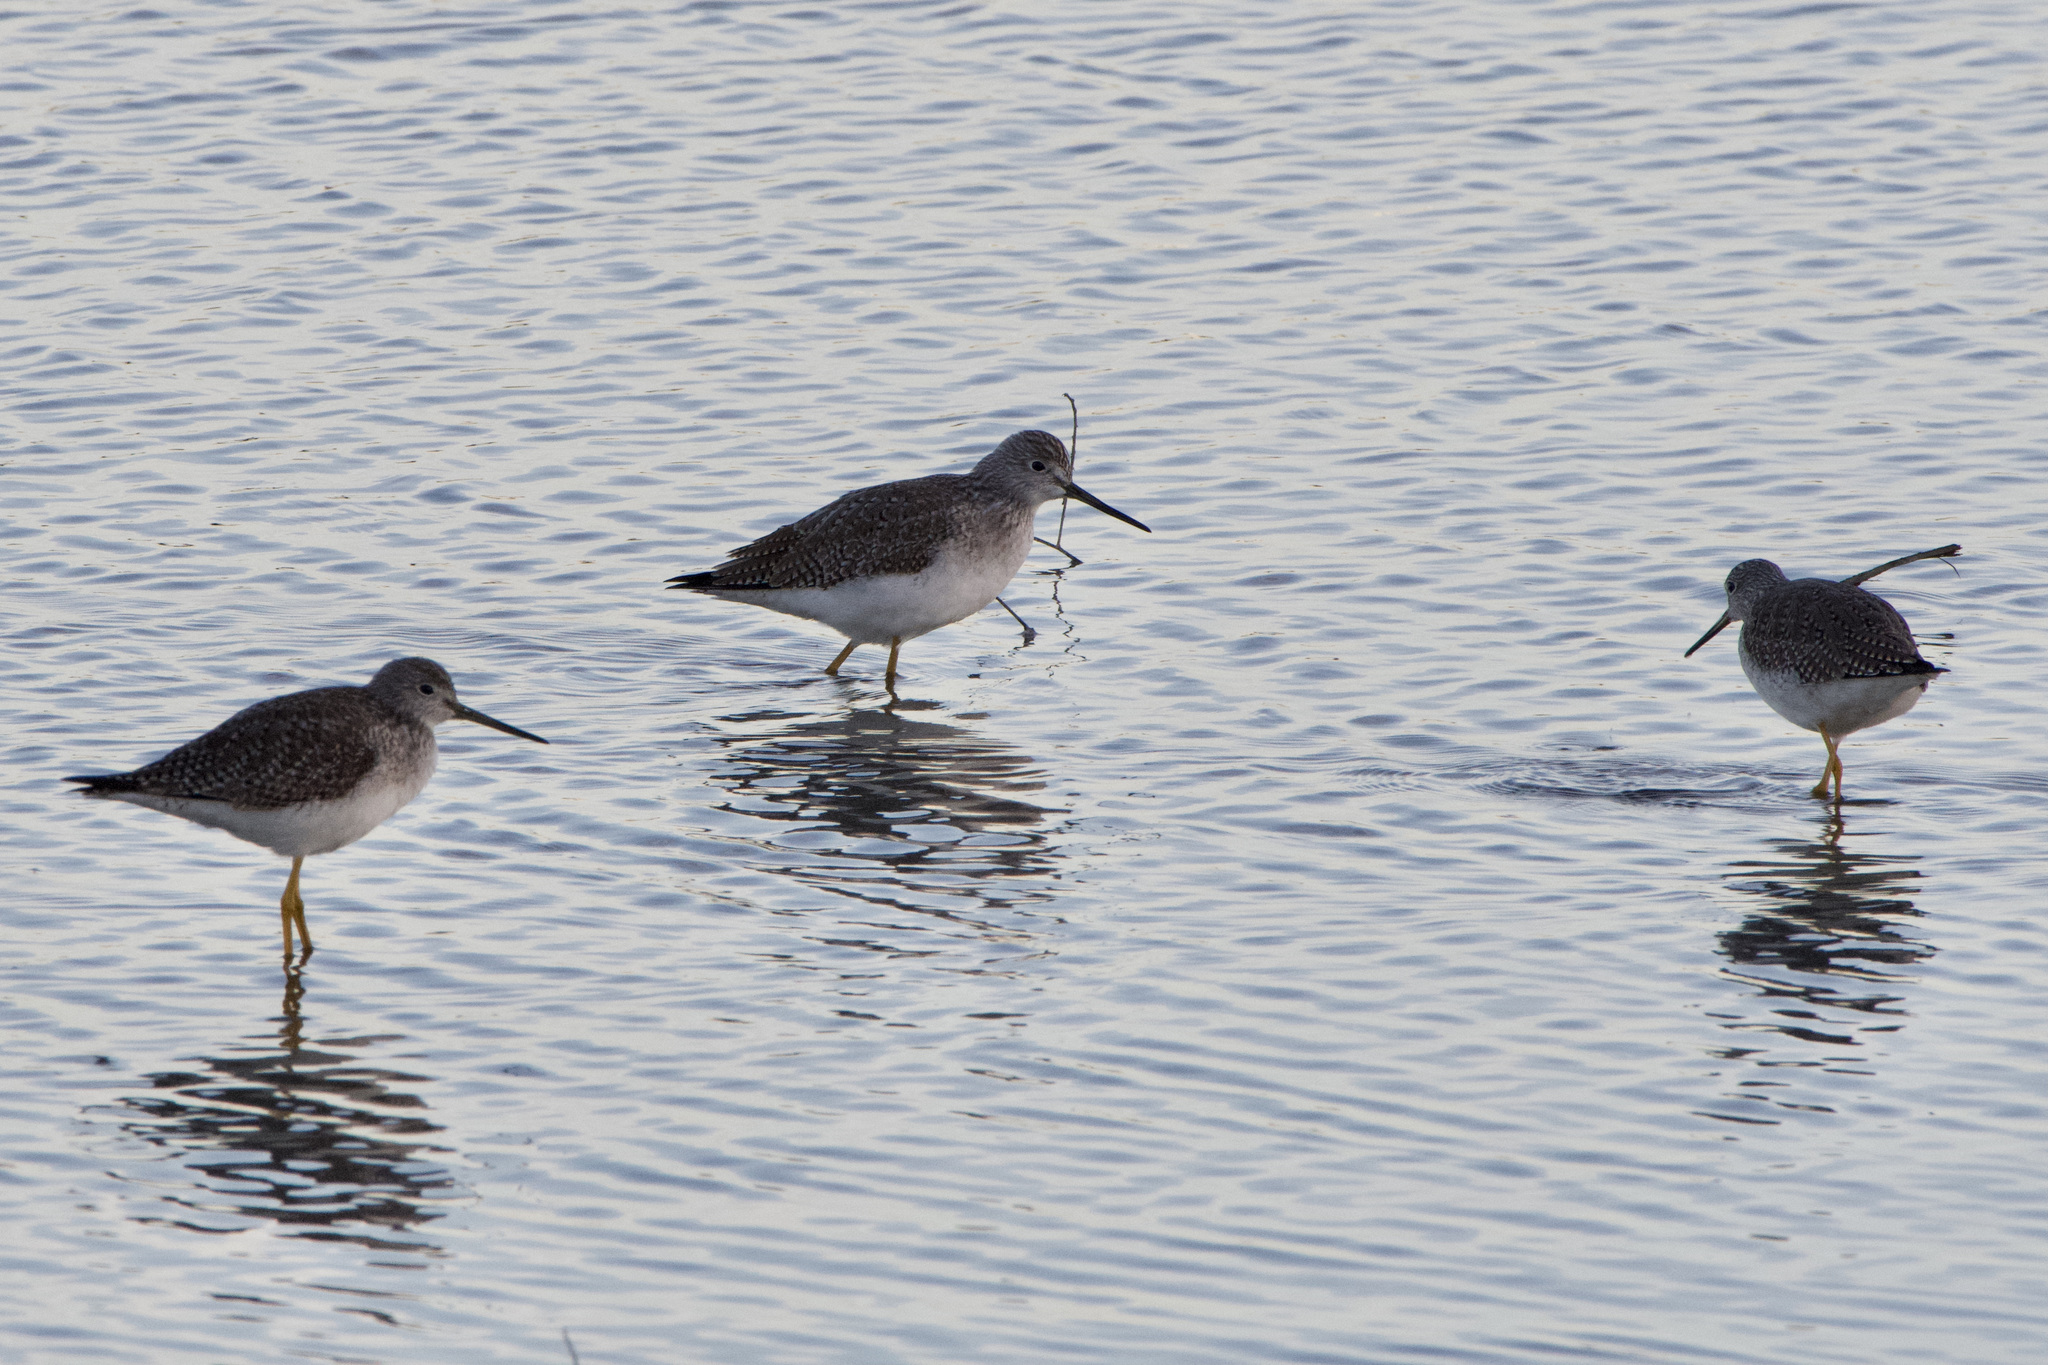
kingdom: Animalia
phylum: Chordata
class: Aves
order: Charadriiformes
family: Scolopacidae
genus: Tringa
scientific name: Tringa melanoleuca
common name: Greater yellowlegs
